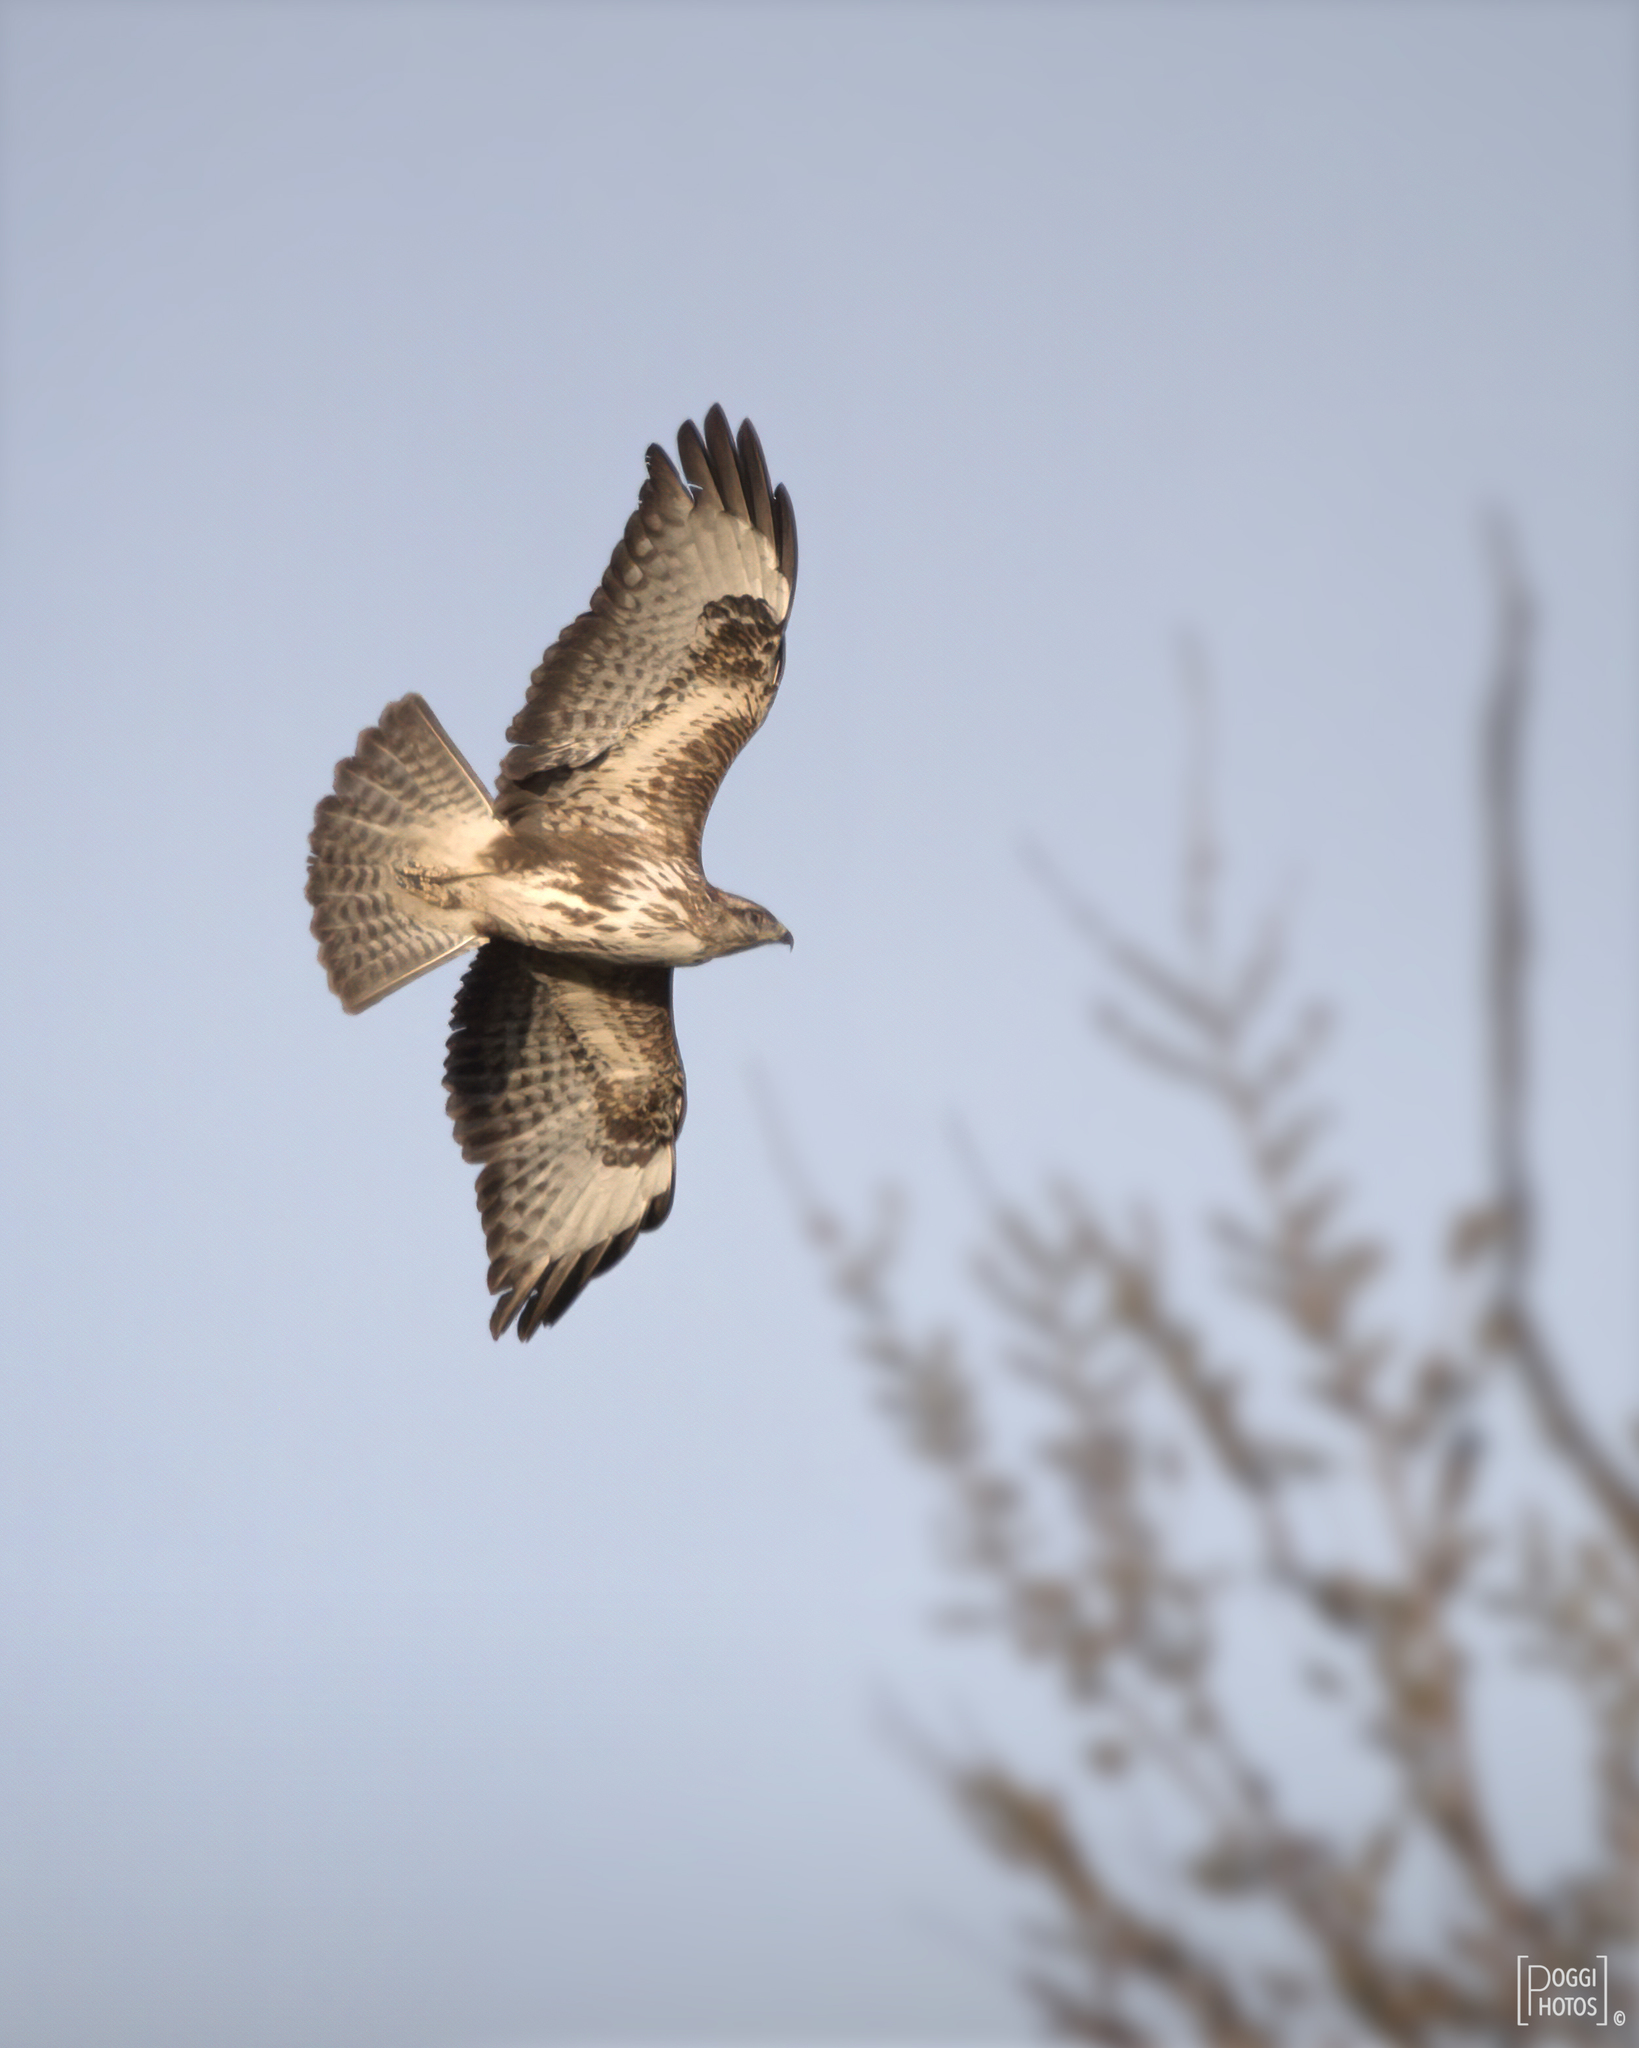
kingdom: Animalia
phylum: Chordata
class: Aves
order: Accipitriformes
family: Accipitridae
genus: Buteo
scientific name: Buteo buteo
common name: Common buzzard
